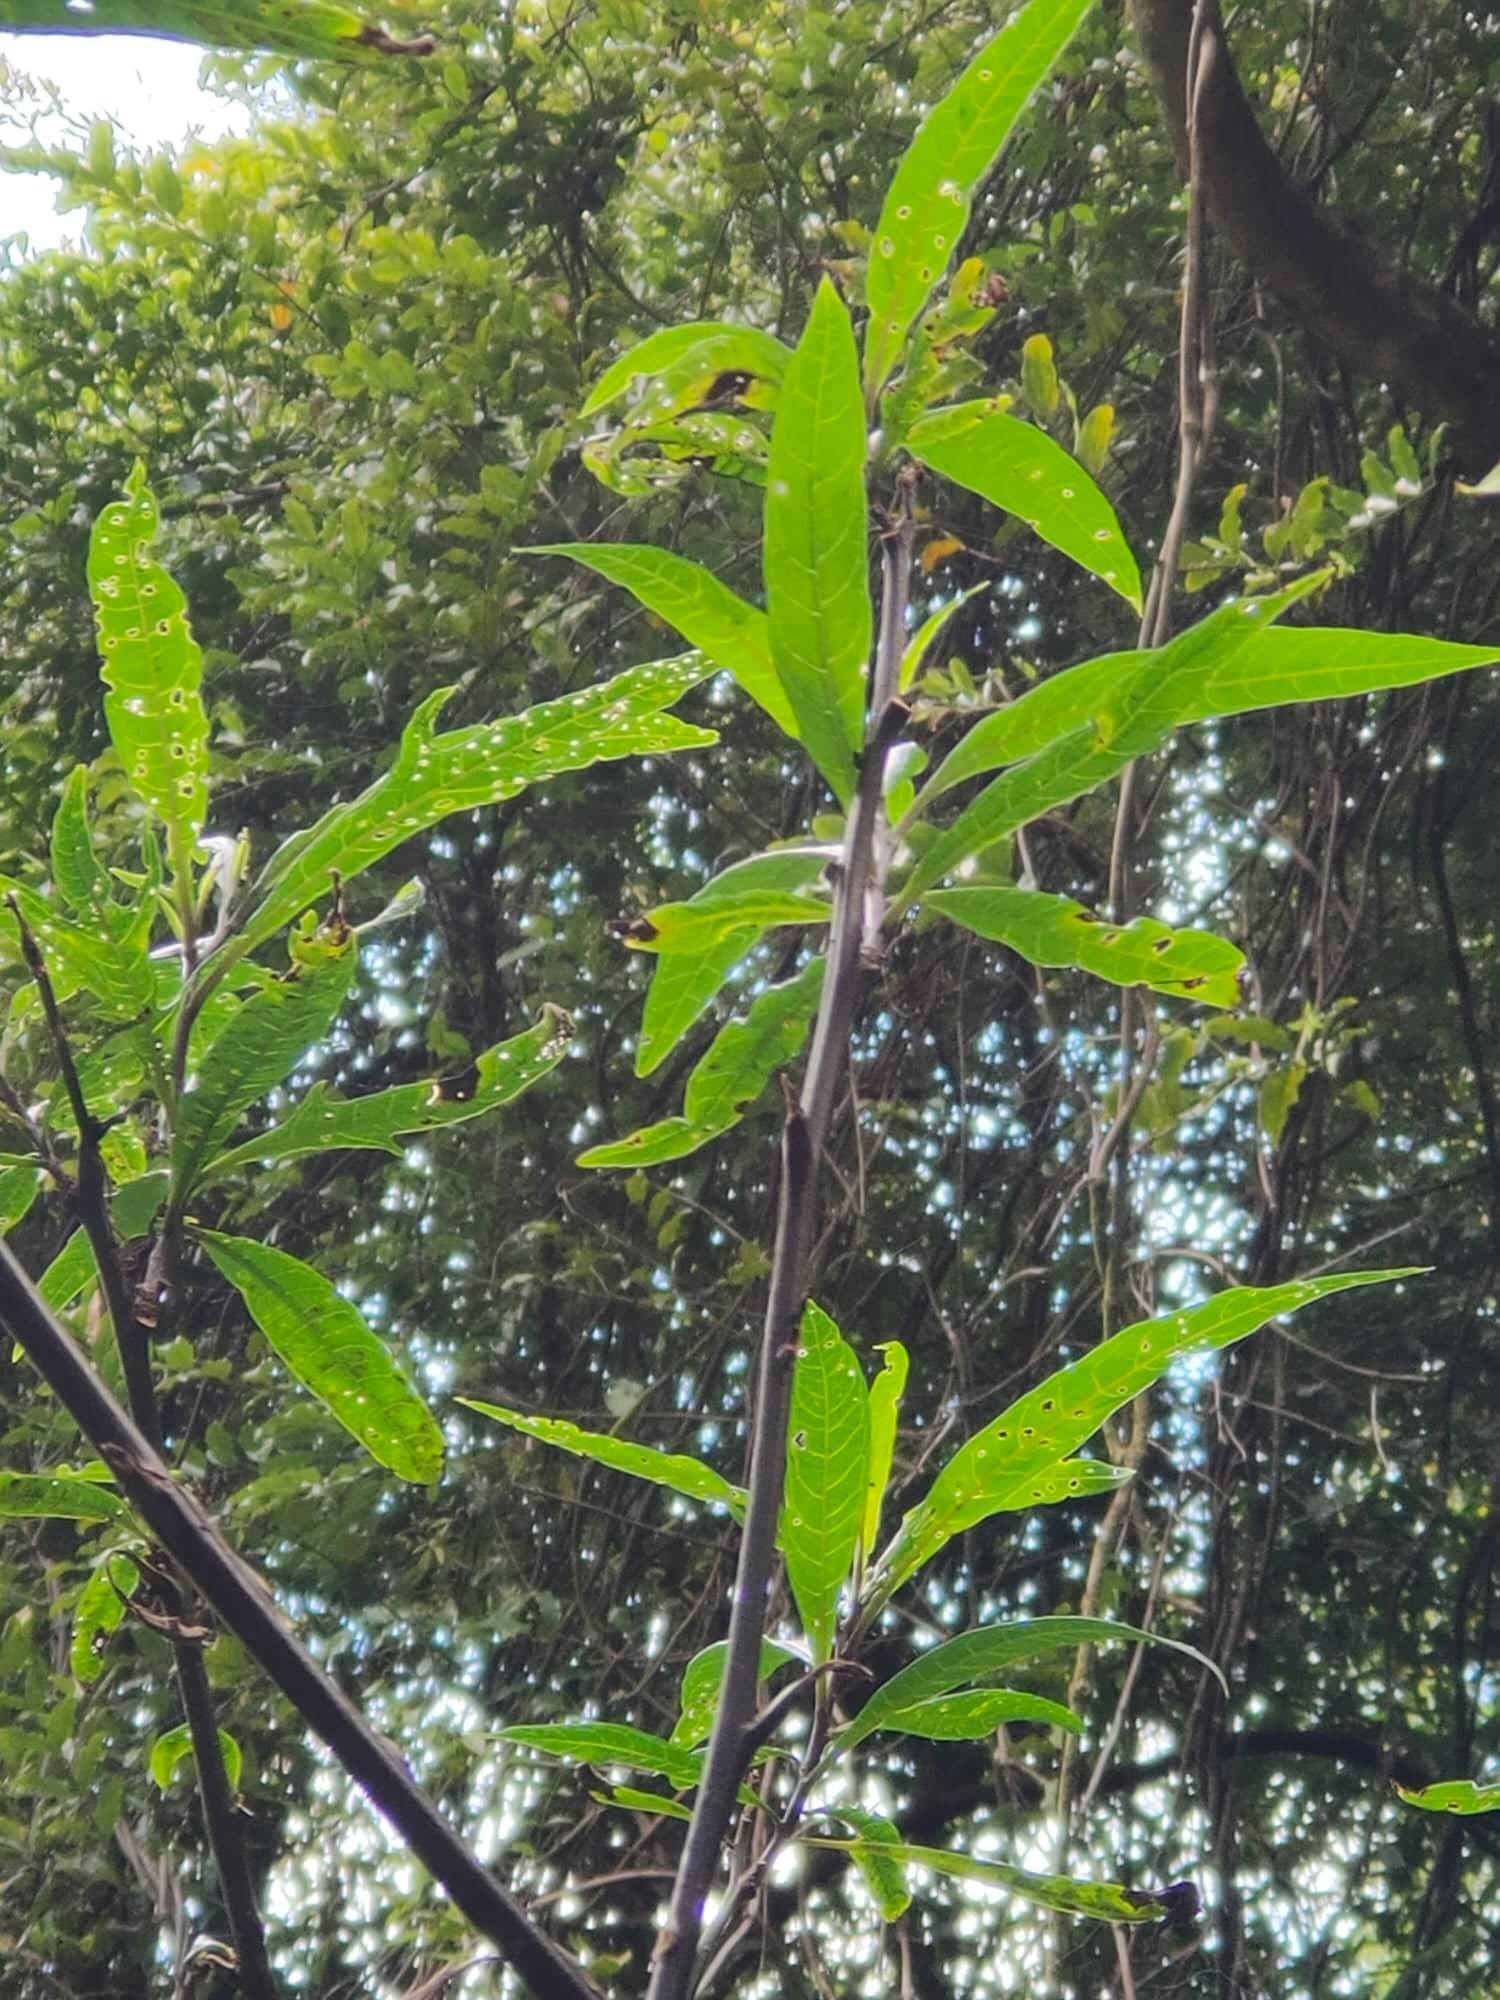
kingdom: Plantae
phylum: Tracheophyta
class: Magnoliopsida
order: Solanales
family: Solanaceae
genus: Solanum
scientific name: Solanum
